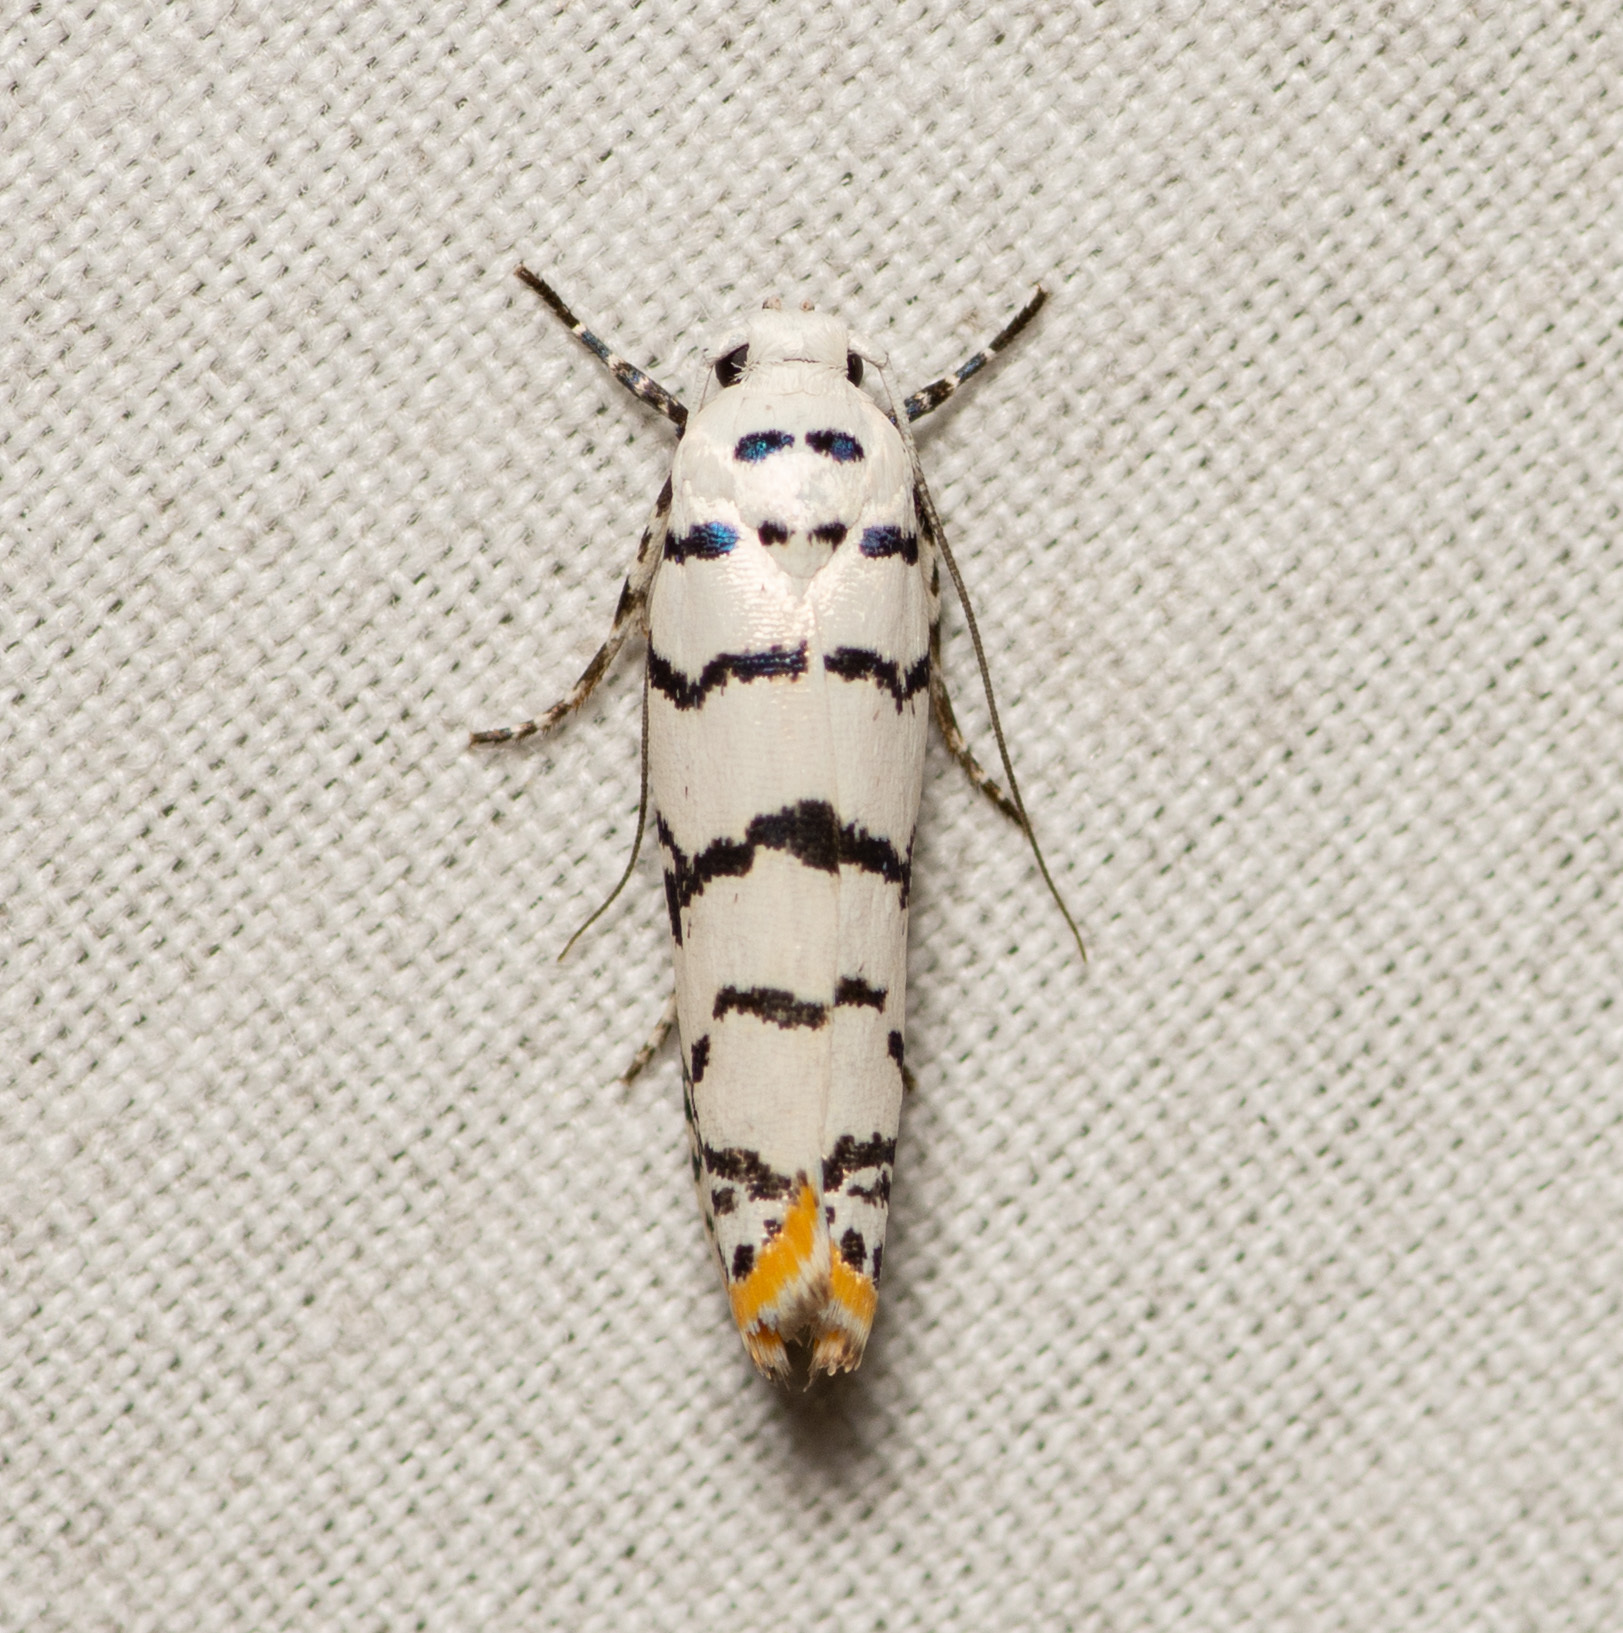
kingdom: Animalia
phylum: Arthropoda
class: Insecta
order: Lepidoptera
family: Ethmiidae
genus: Ethmia
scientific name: Ethmia delliella
